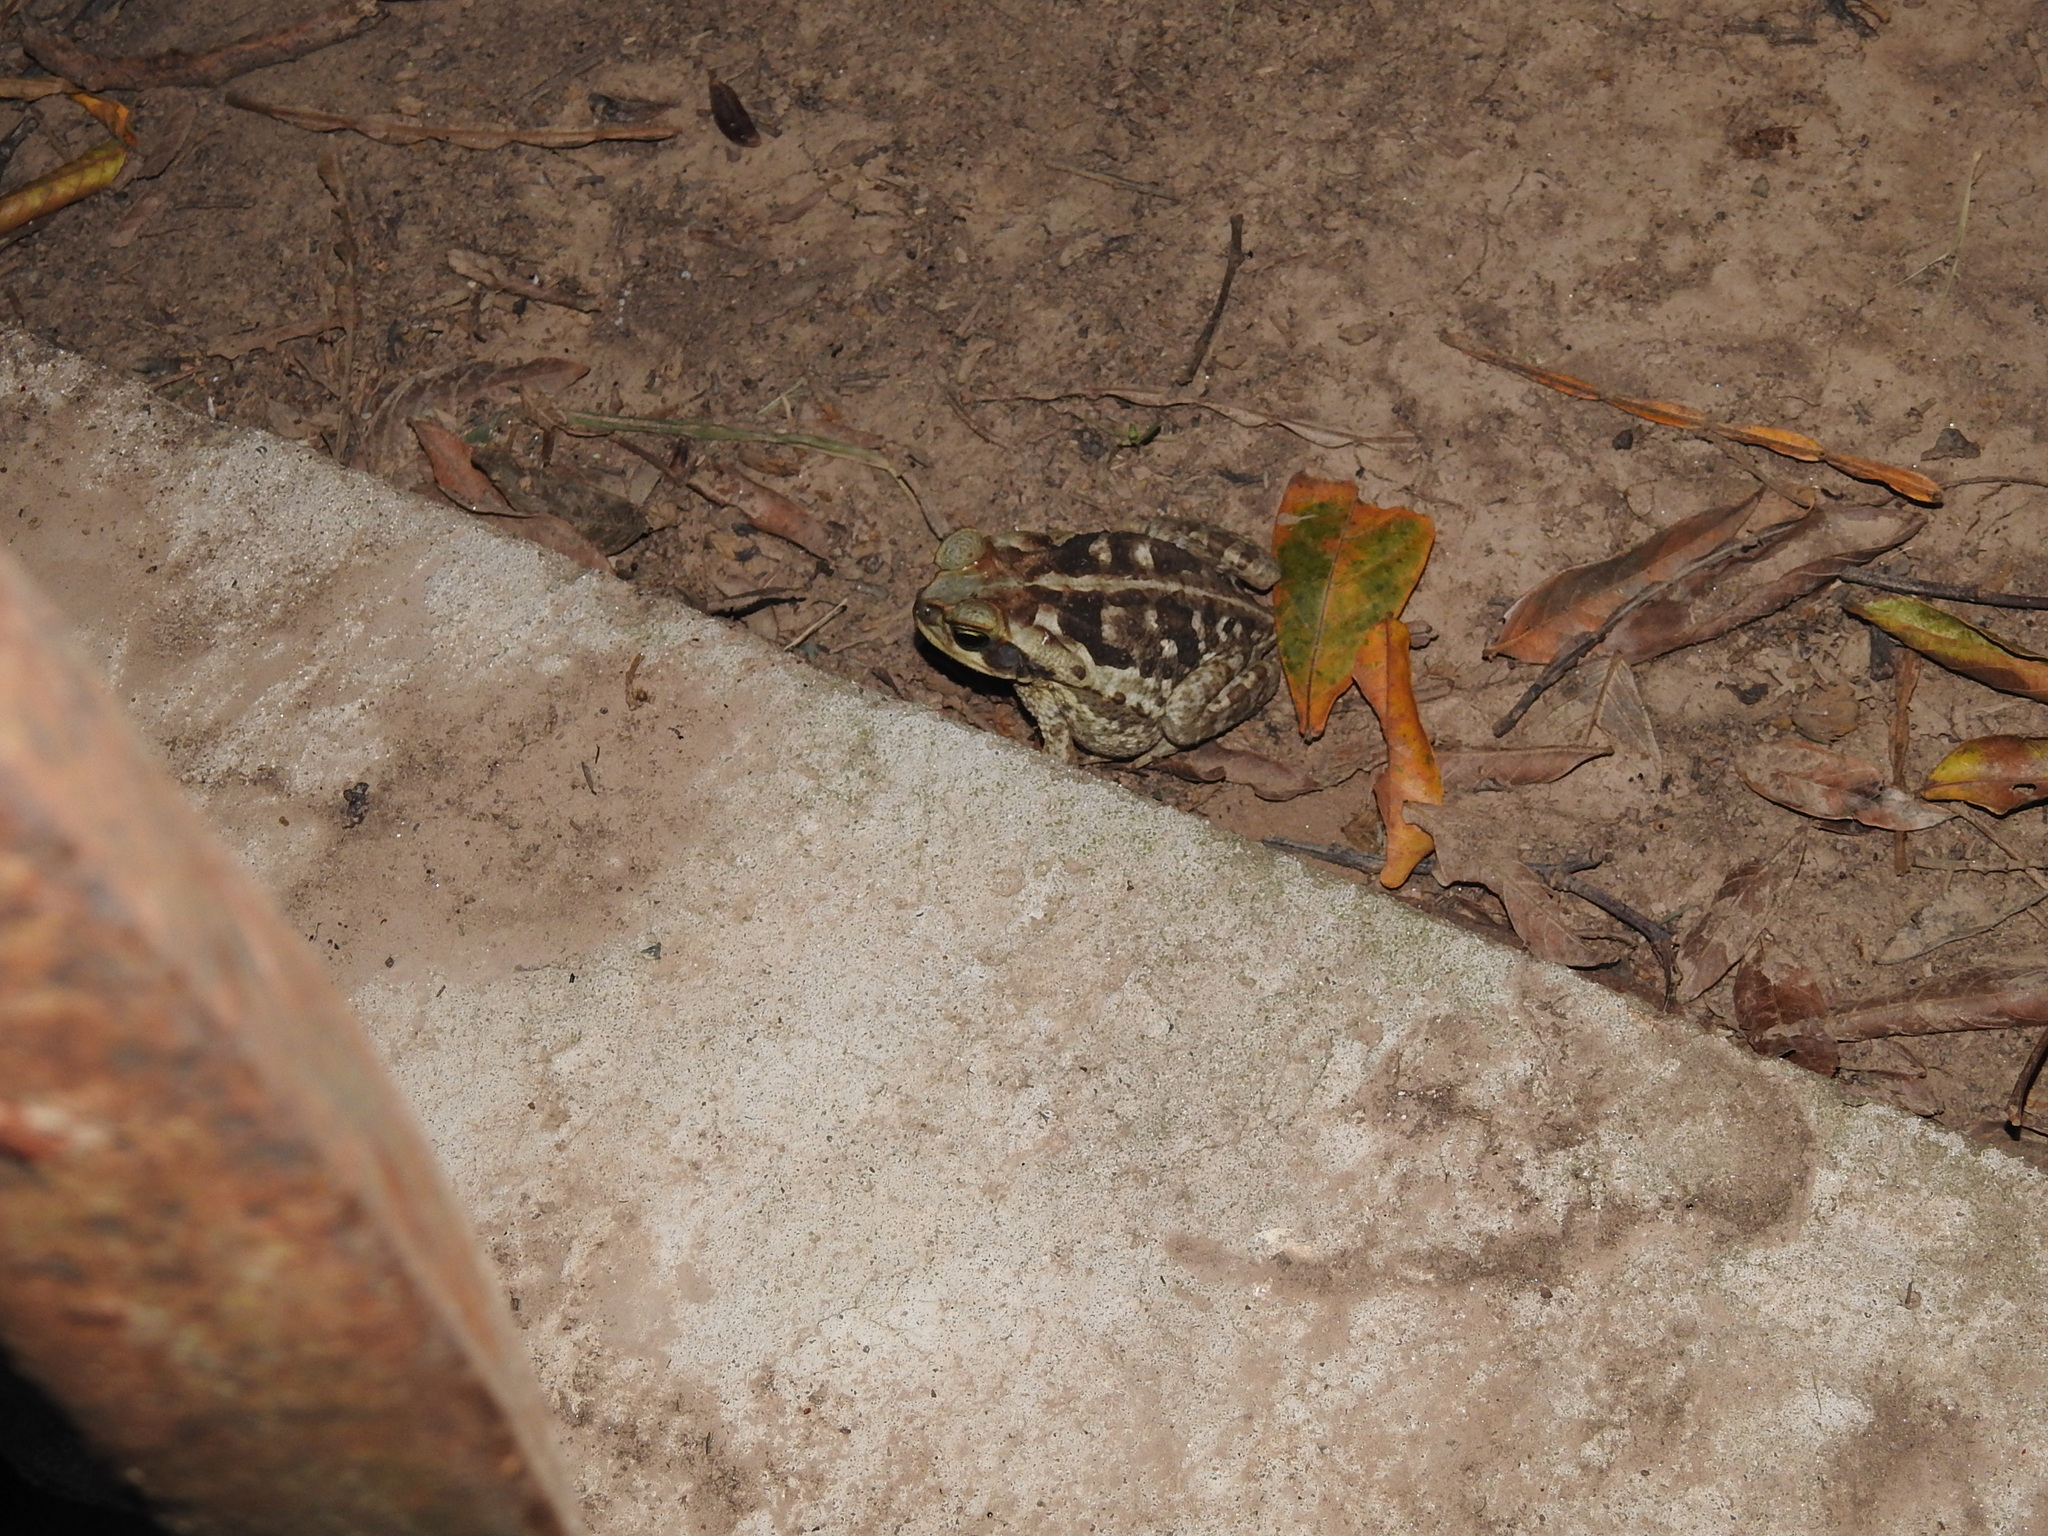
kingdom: Animalia
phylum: Chordata
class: Amphibia
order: Anura
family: Bufonidae
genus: Rhinella
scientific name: Rhinella diptycha
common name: Cope's toad
